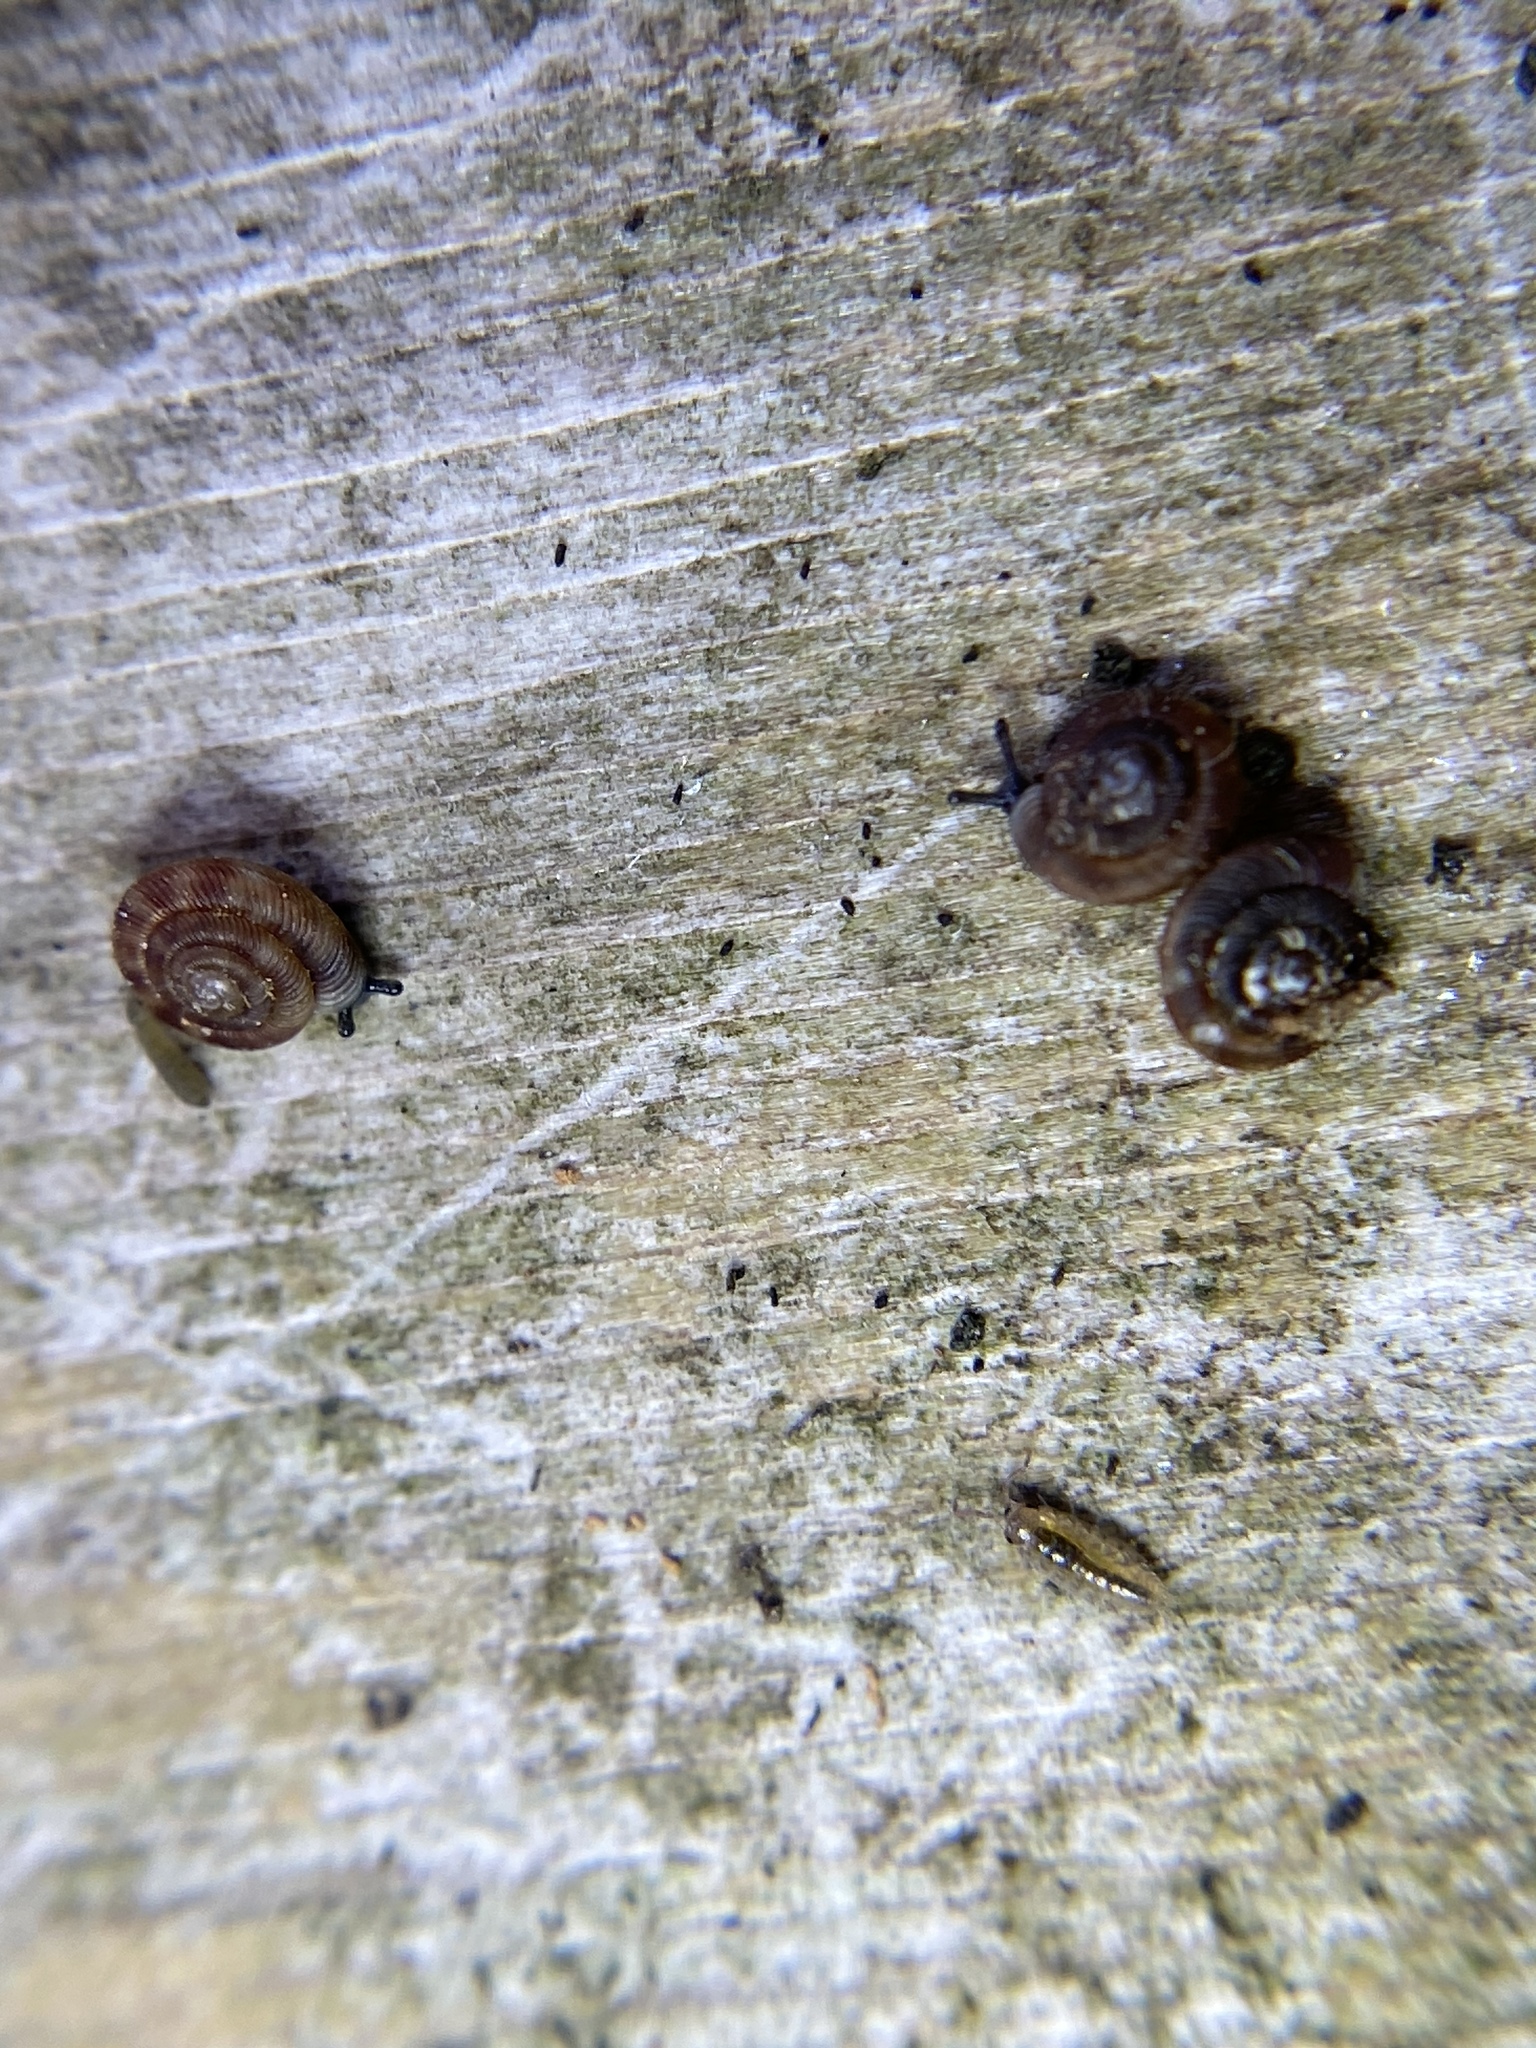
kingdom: Animalia
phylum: Mollusca
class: Gastropoda
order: Stylommatophora
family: Discidae
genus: Discus
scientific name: Discus rotundatus
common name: Rounded snail
